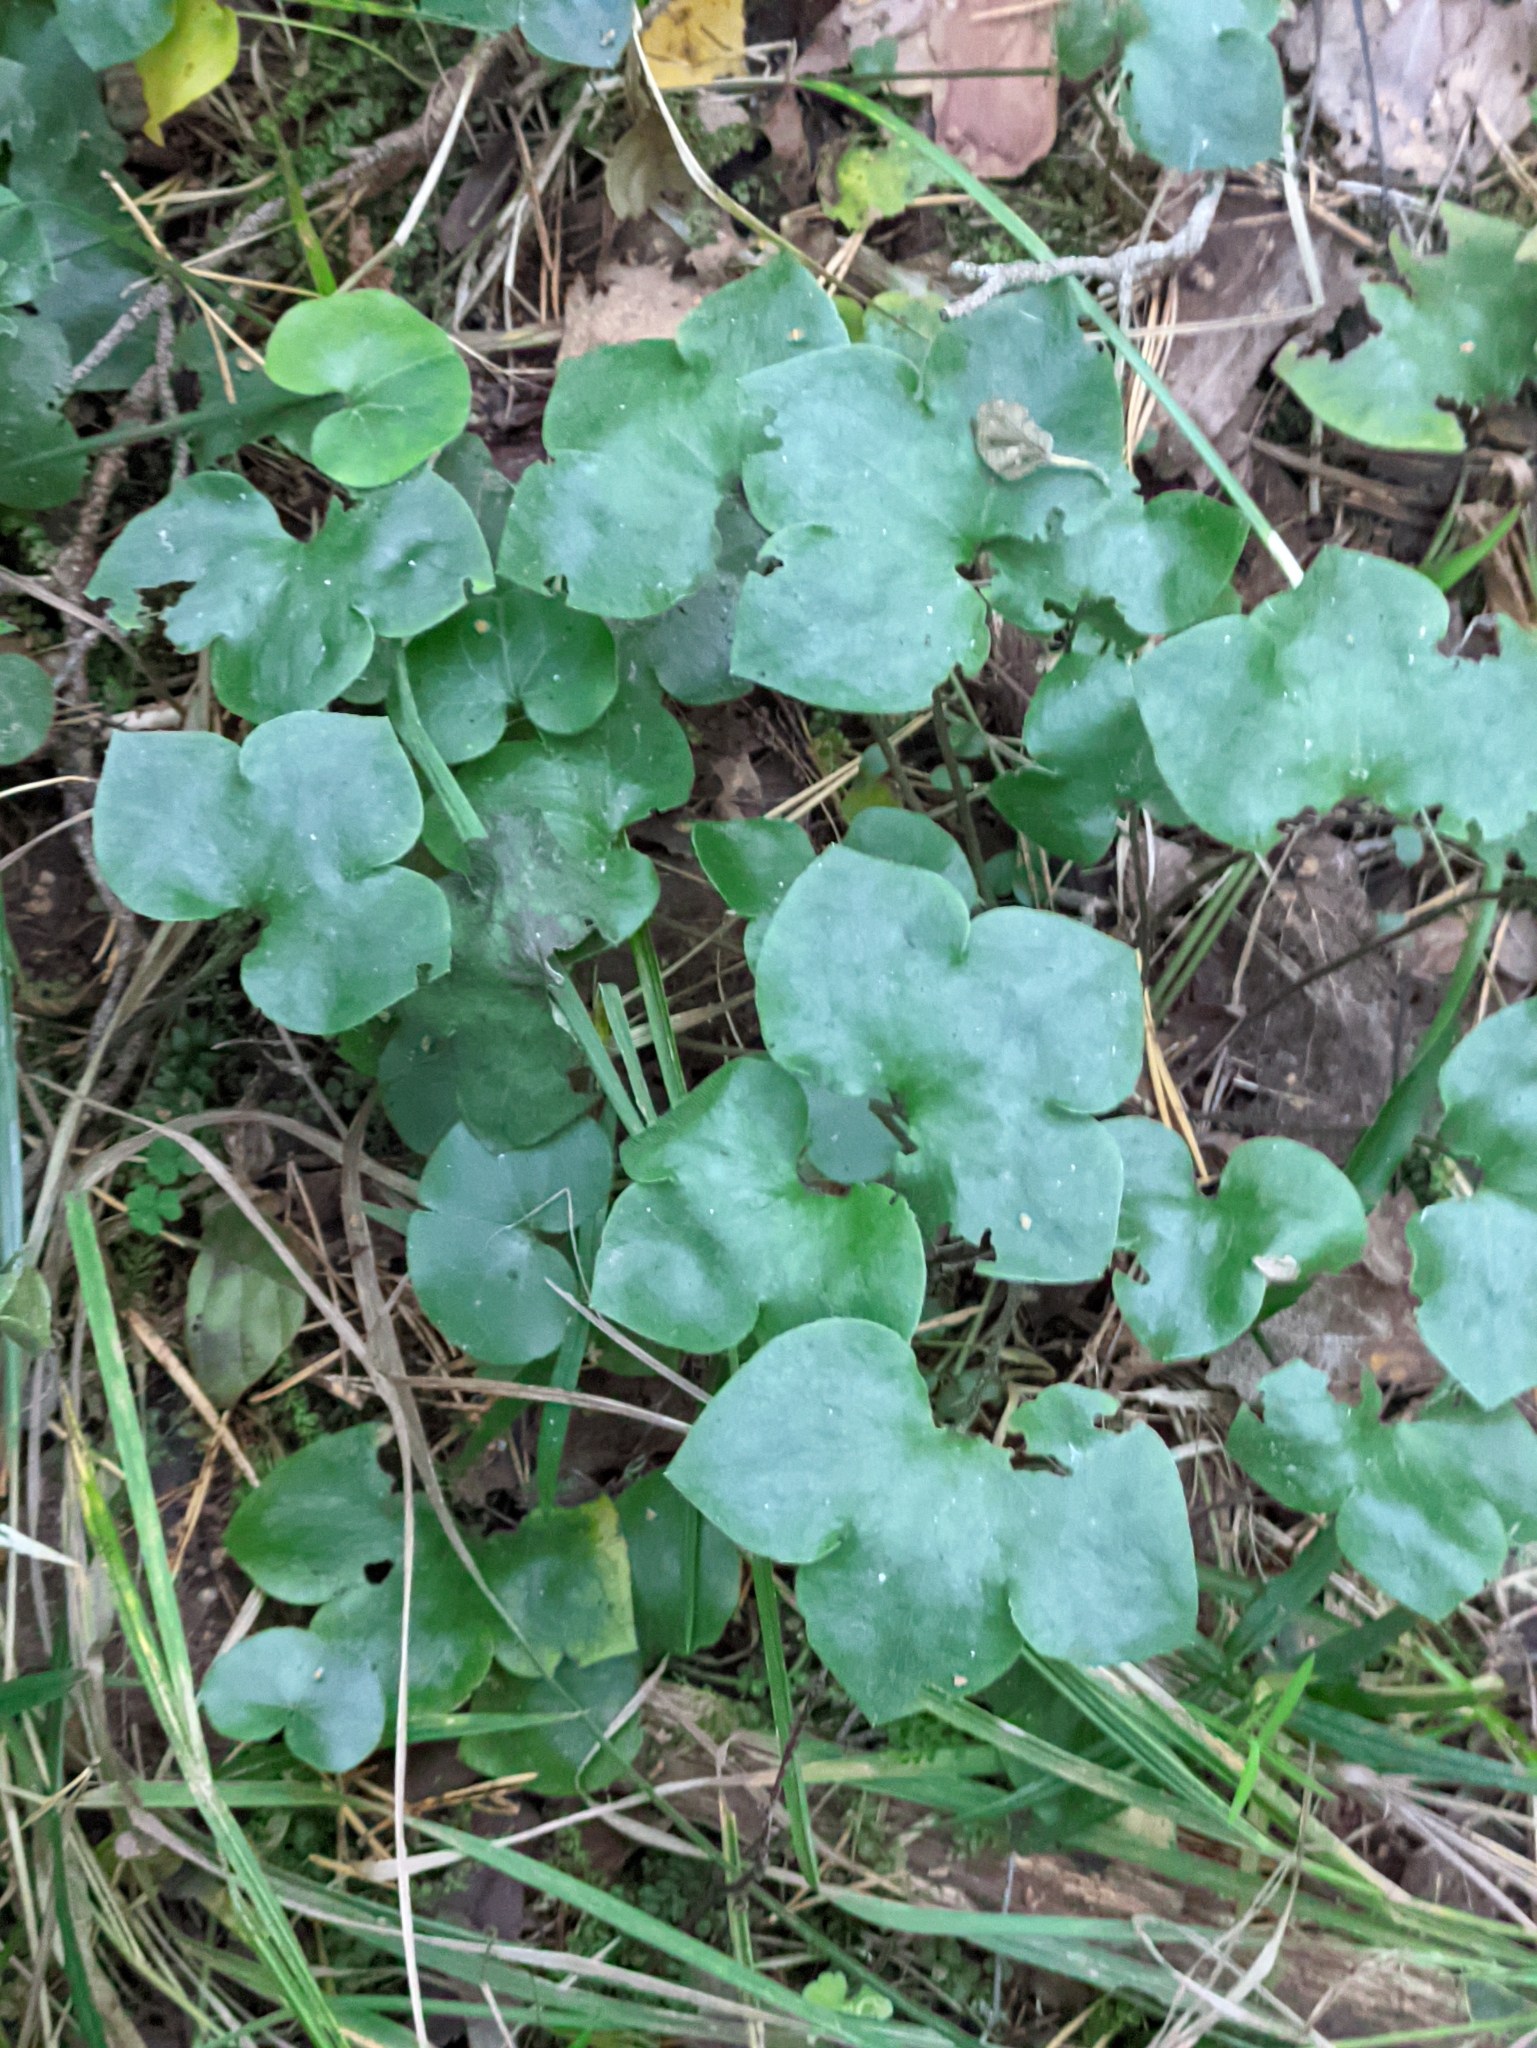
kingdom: Plantae
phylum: Tracheophyta
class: Magnoliopsida
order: Ranunculales
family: Ranunculaceae
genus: Hepatica
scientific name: Hepatica nobilis
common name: Liverleaf
